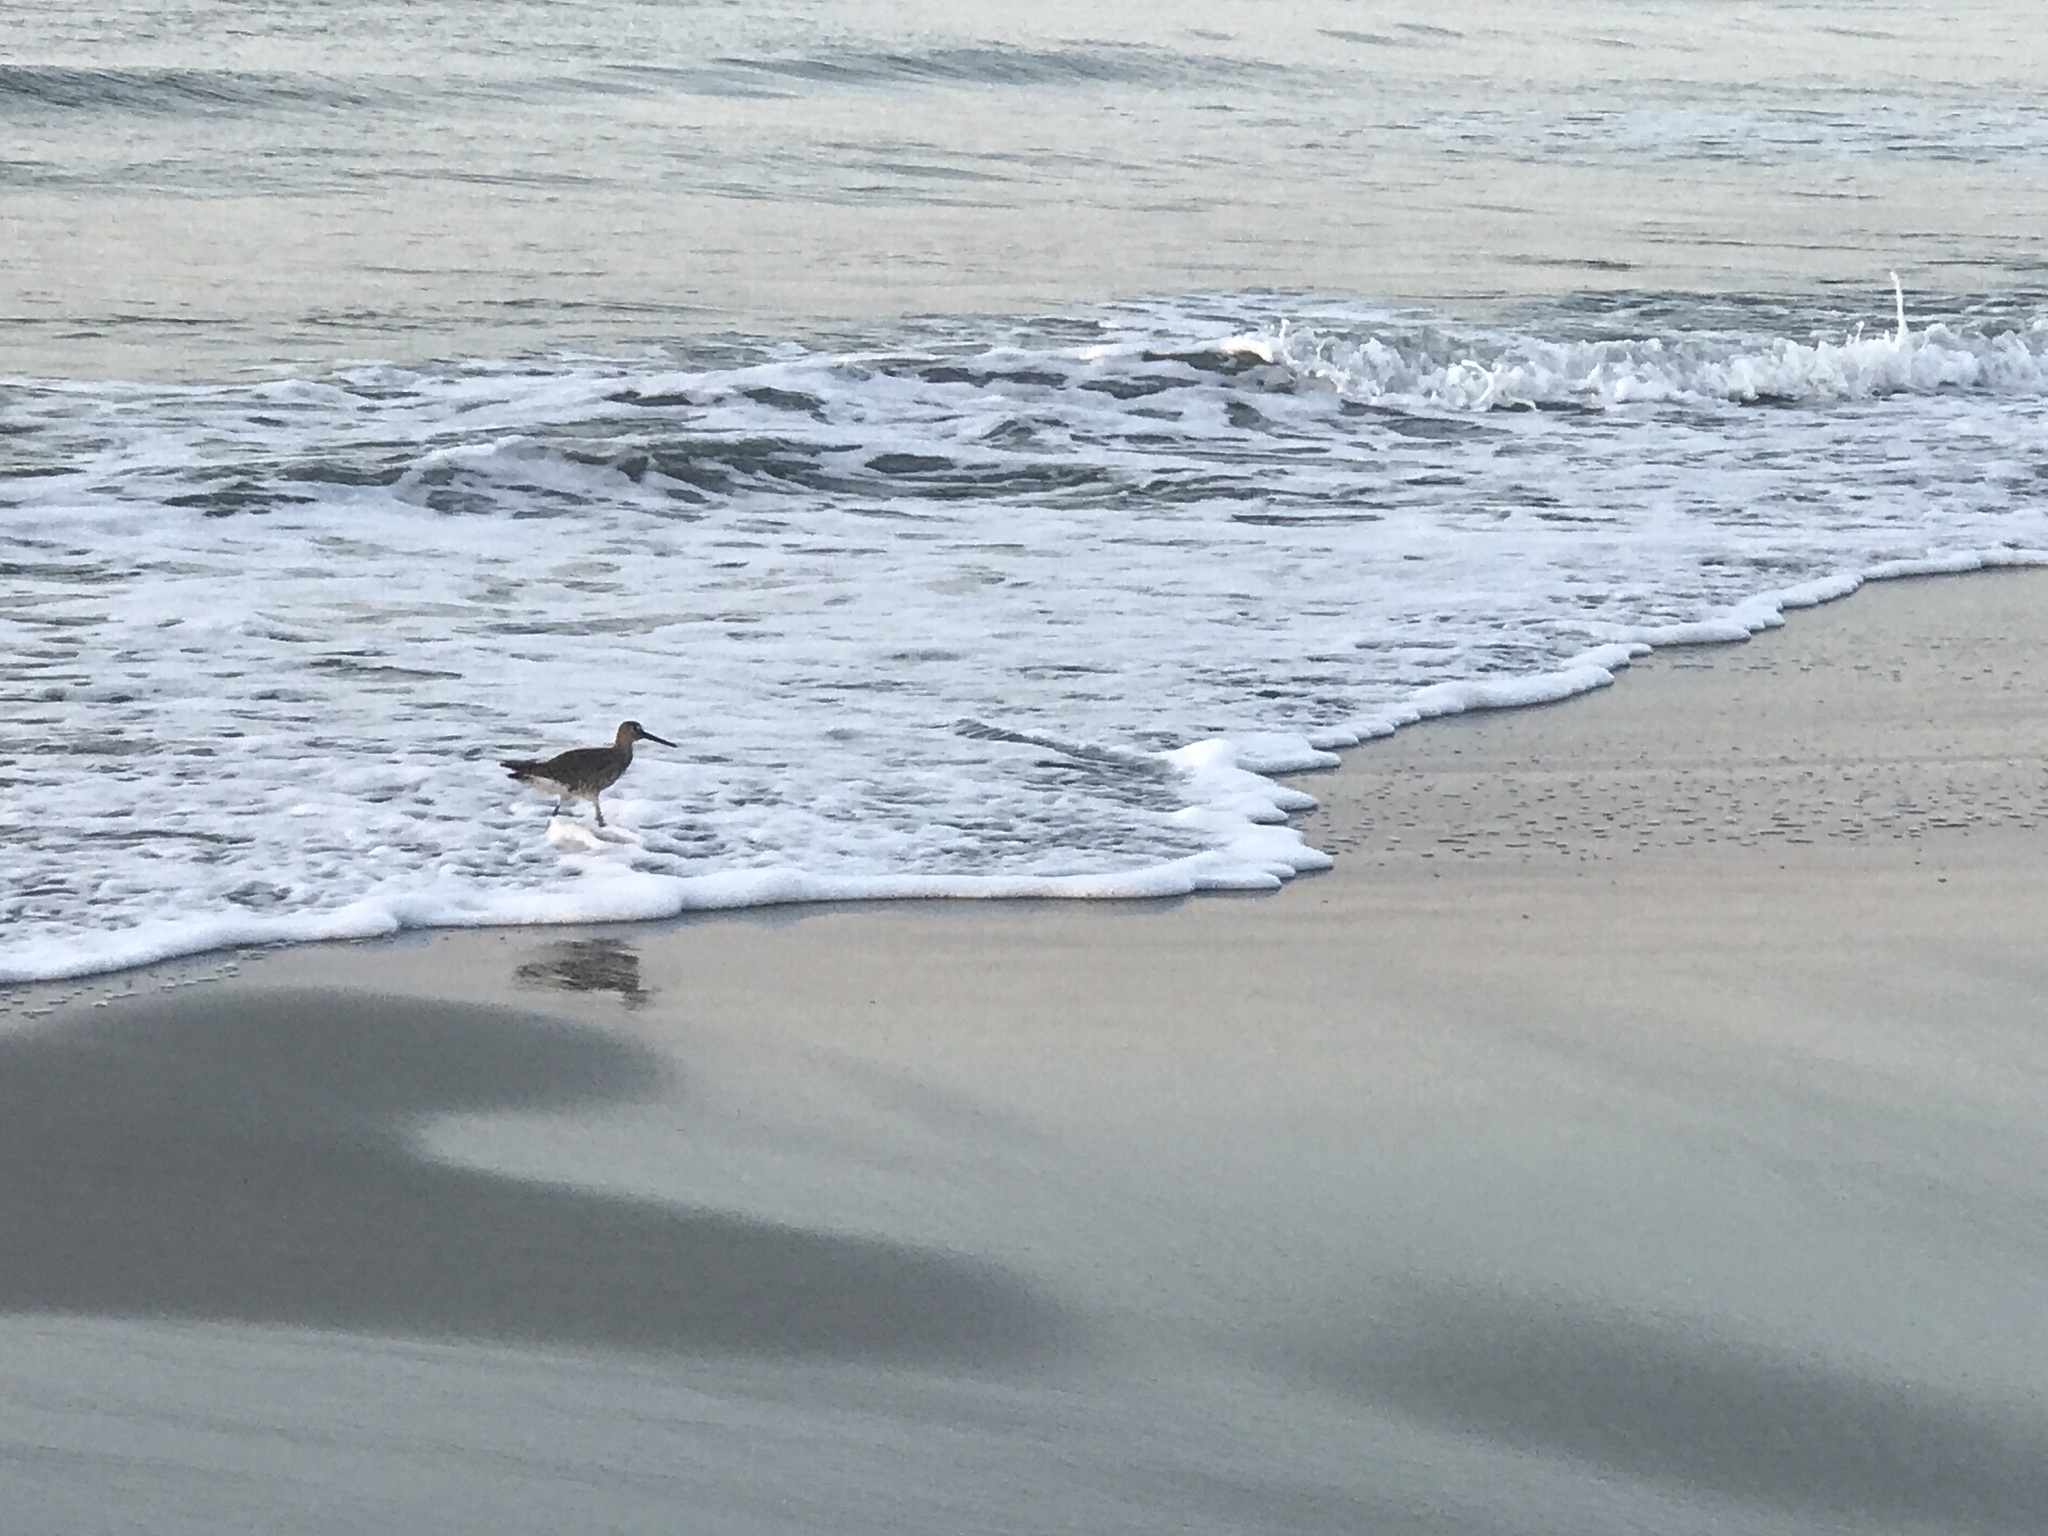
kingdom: Animalia
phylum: Chordata
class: Aves
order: Charadriiformes
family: Scolopacidae
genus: Tringa
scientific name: Tringa semipalmata
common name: Willet
